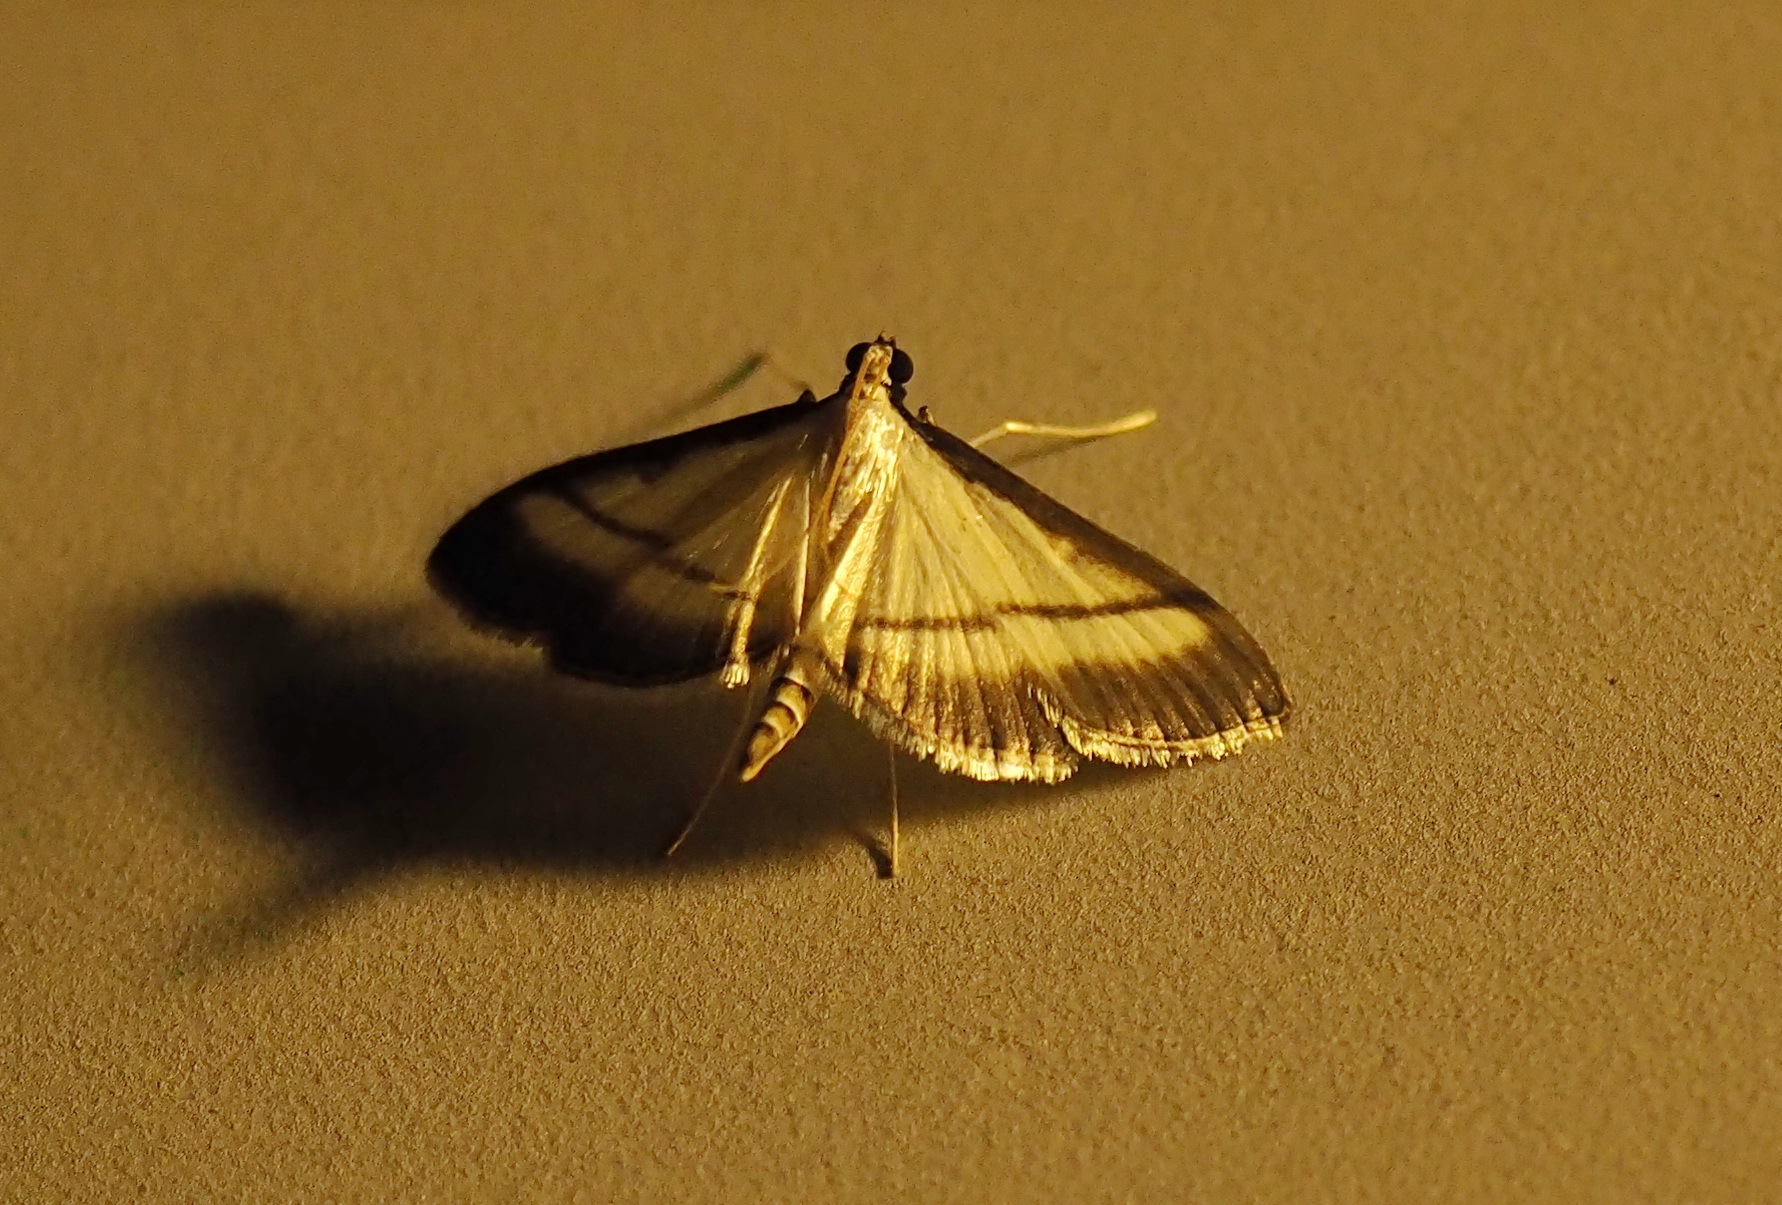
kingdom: Animalia
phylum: Arthropoda
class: Insecta
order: Lepidoptera
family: Crambidae
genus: Bradina
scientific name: Bradina diagonalis
